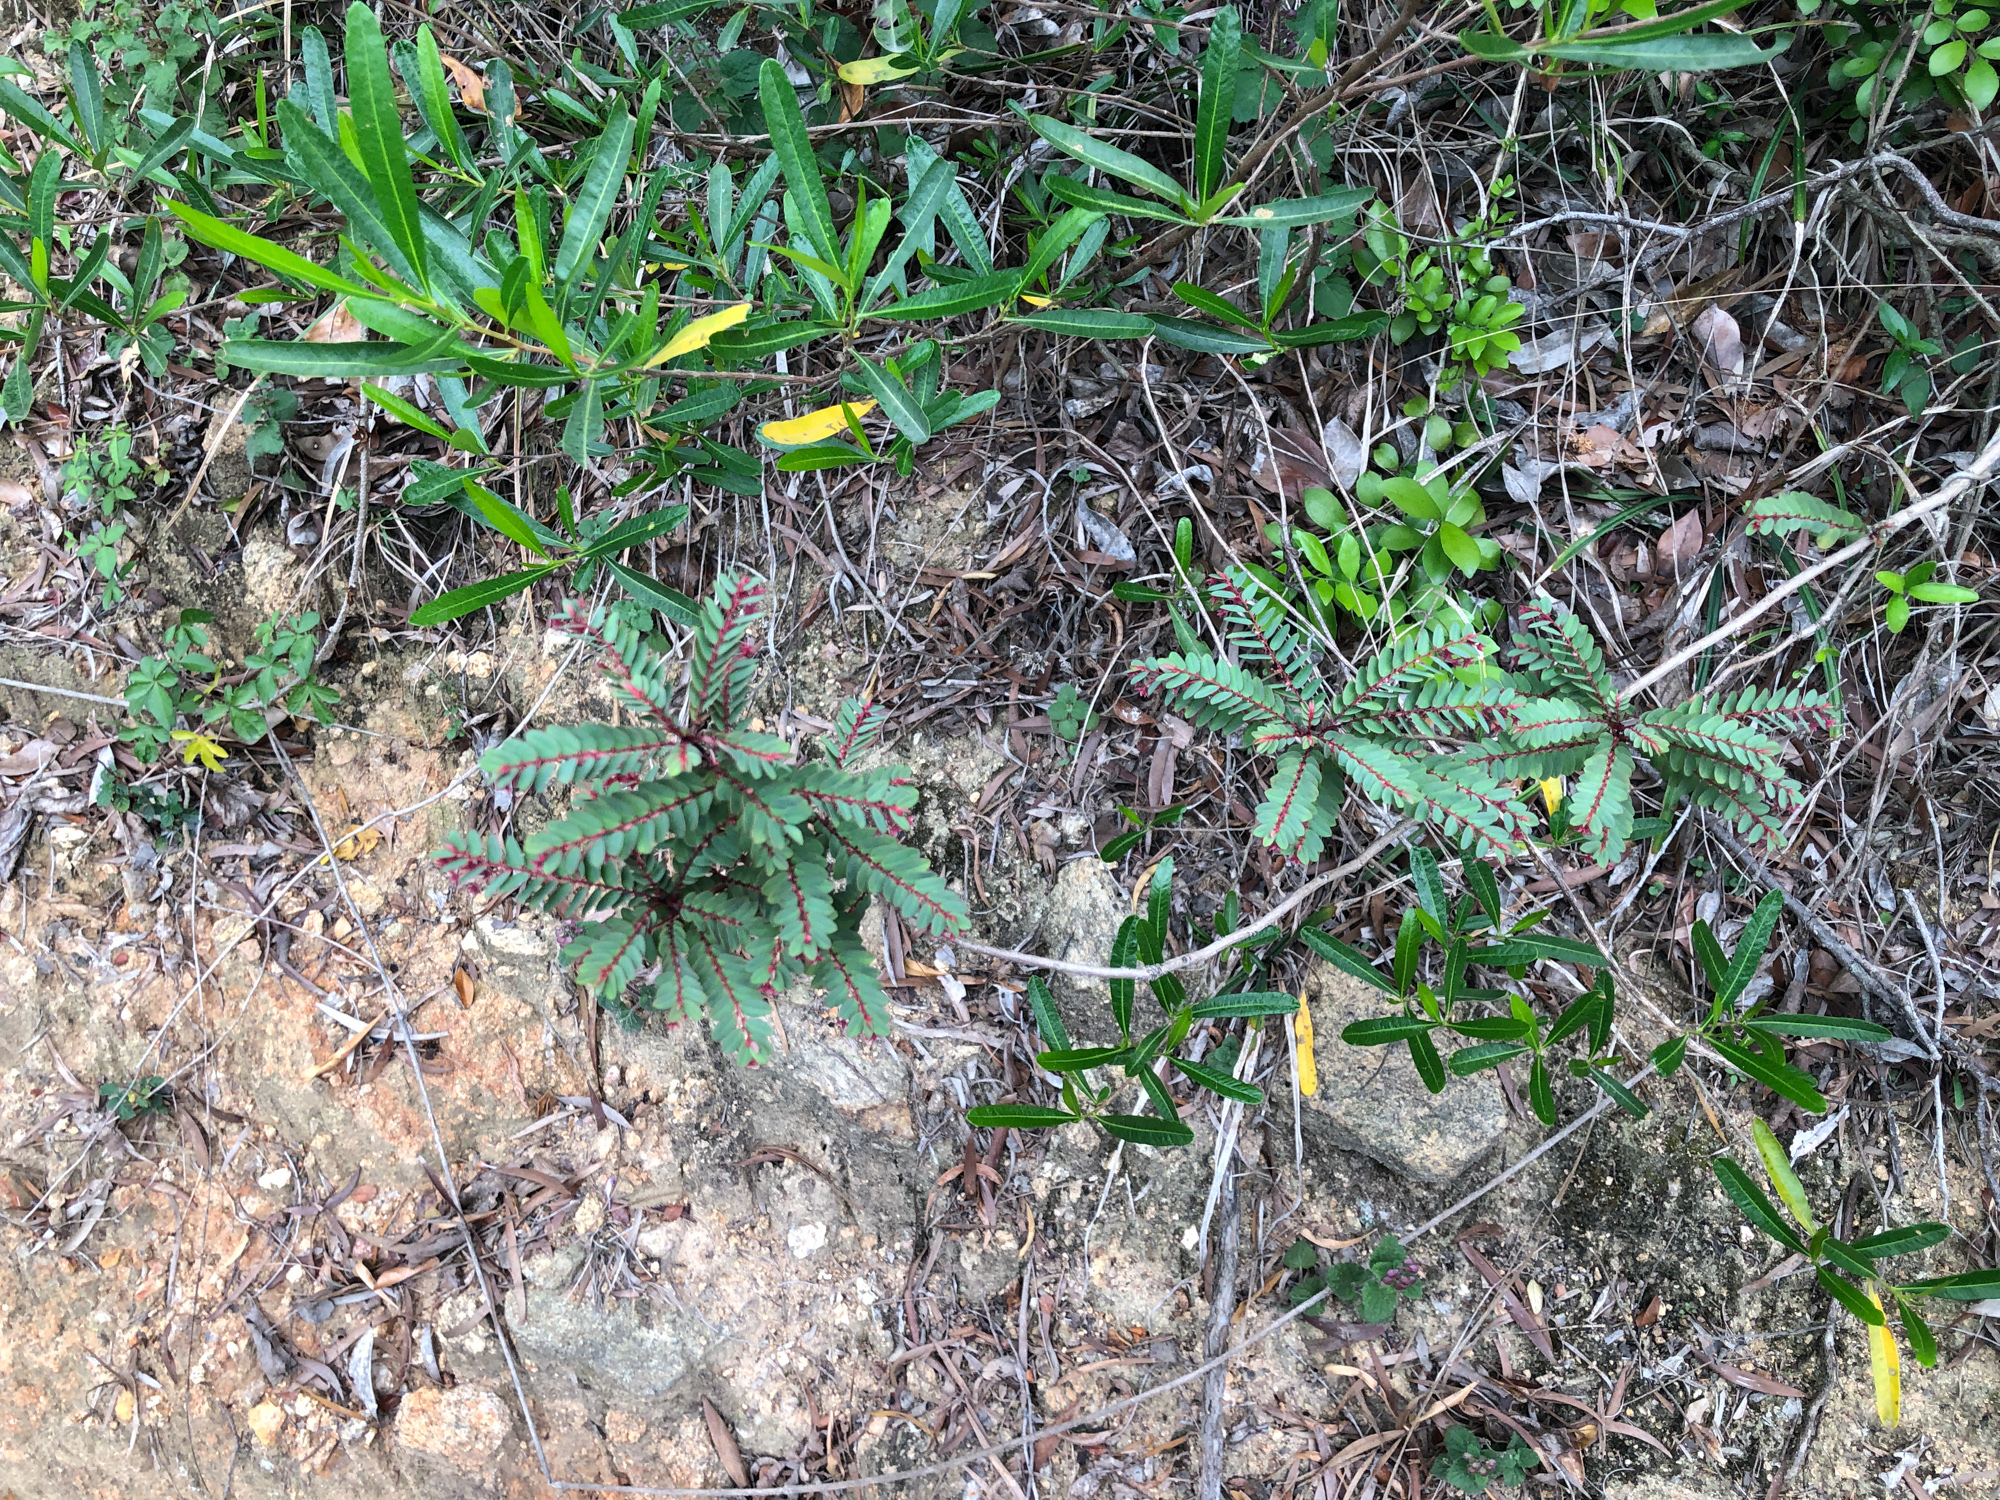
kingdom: Plantae
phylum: Tracheophyta
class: Magnoliopsida
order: Malpighiales
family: Phyllanthaceae
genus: Phyllanthus
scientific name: Phyllanthus leptoclados
